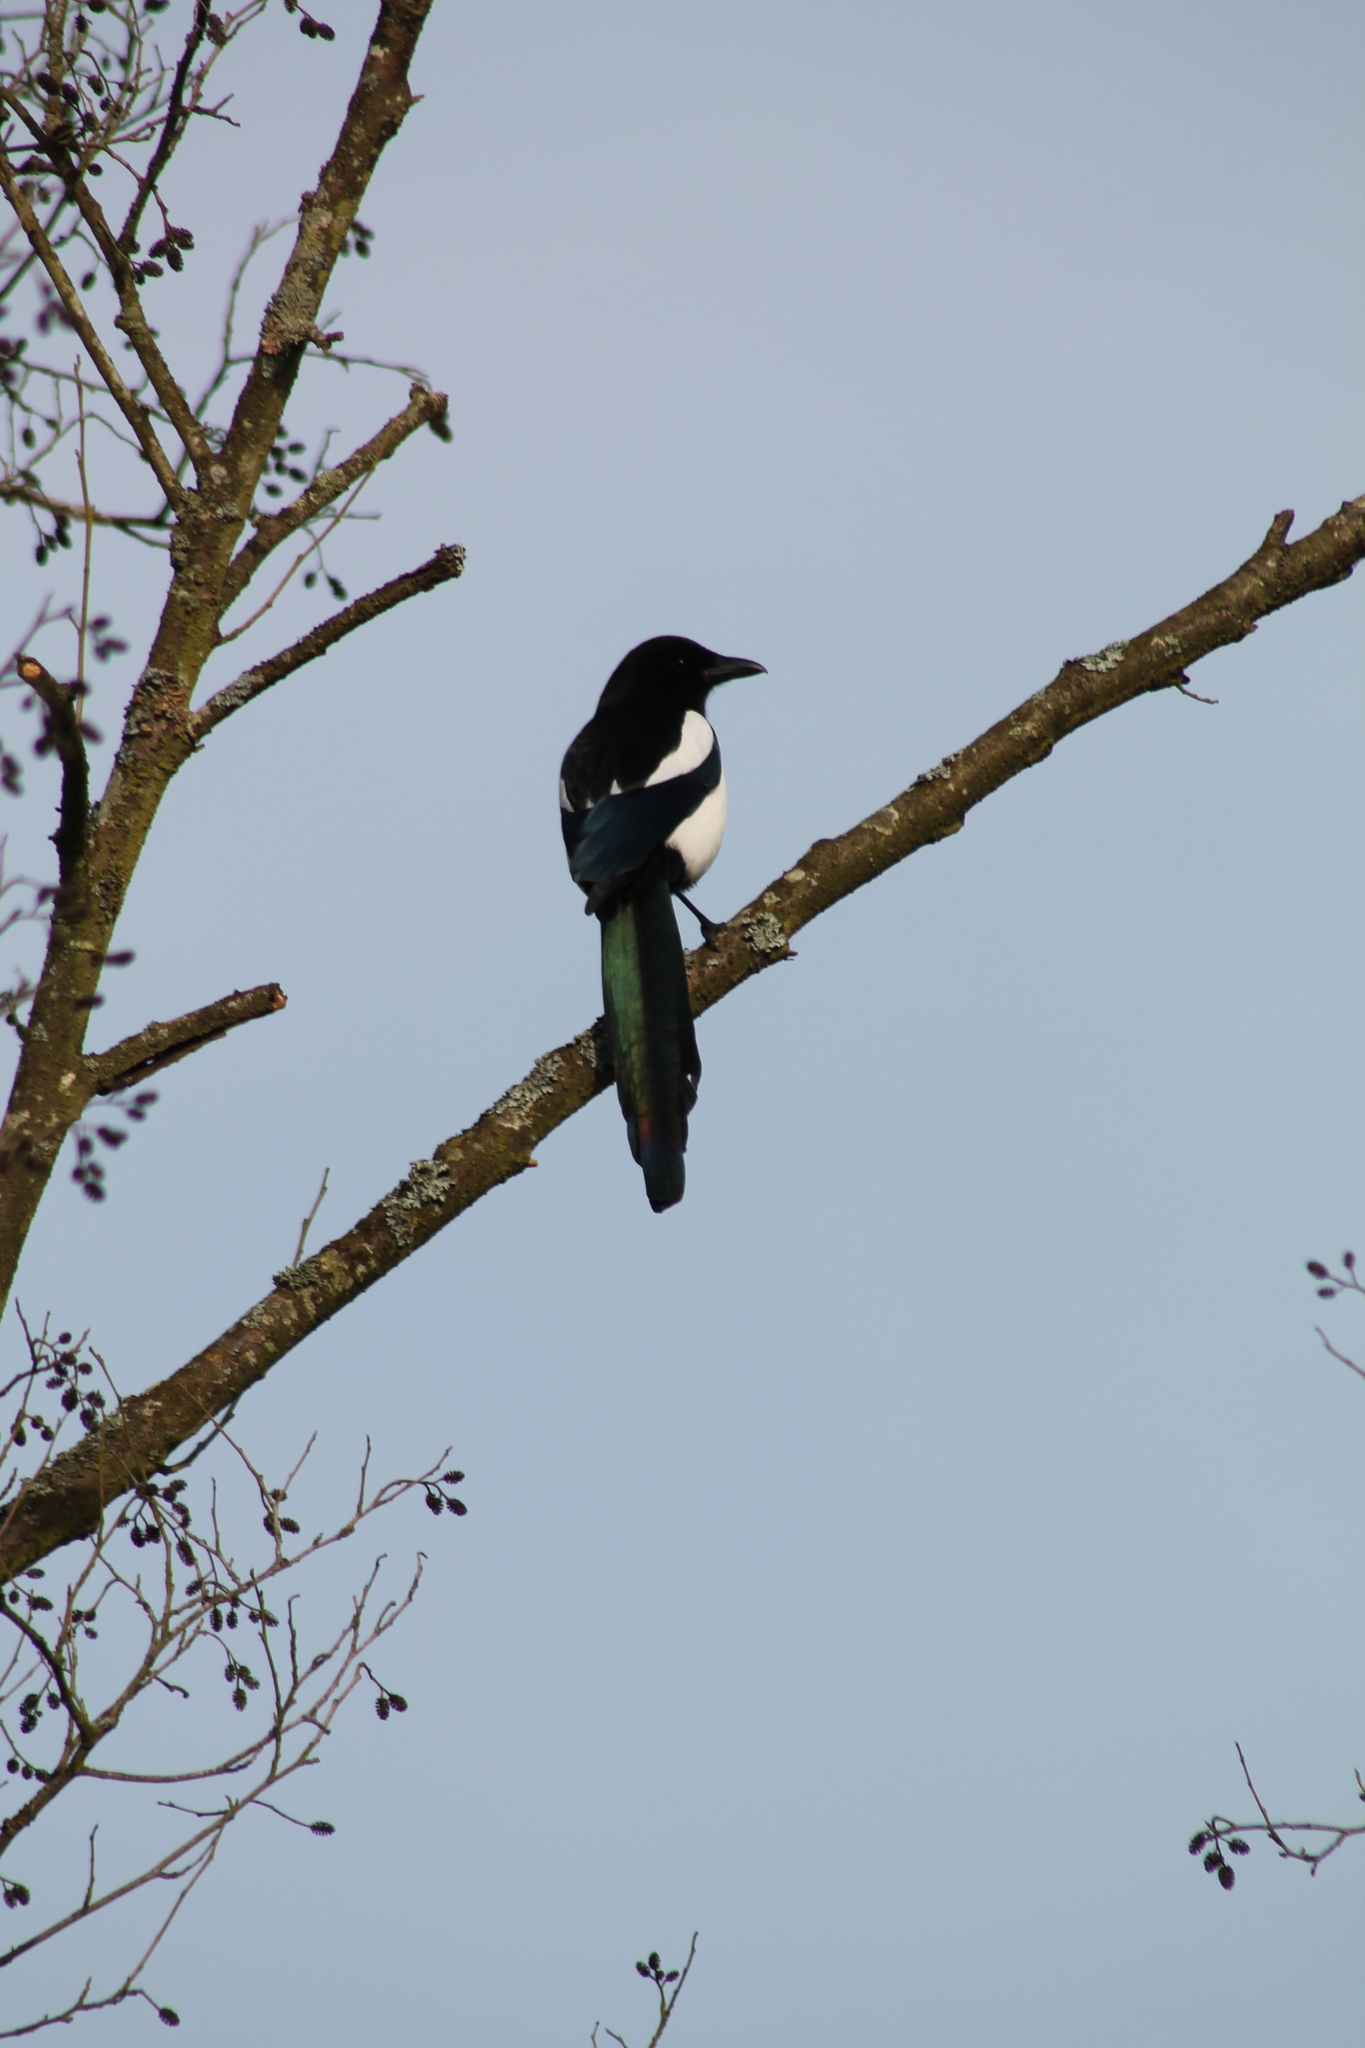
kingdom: Animalia
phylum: Chordata
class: Aves
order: Passeriformes
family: Corvidae
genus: Pica
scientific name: Pica pica
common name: Eurasian magpie
